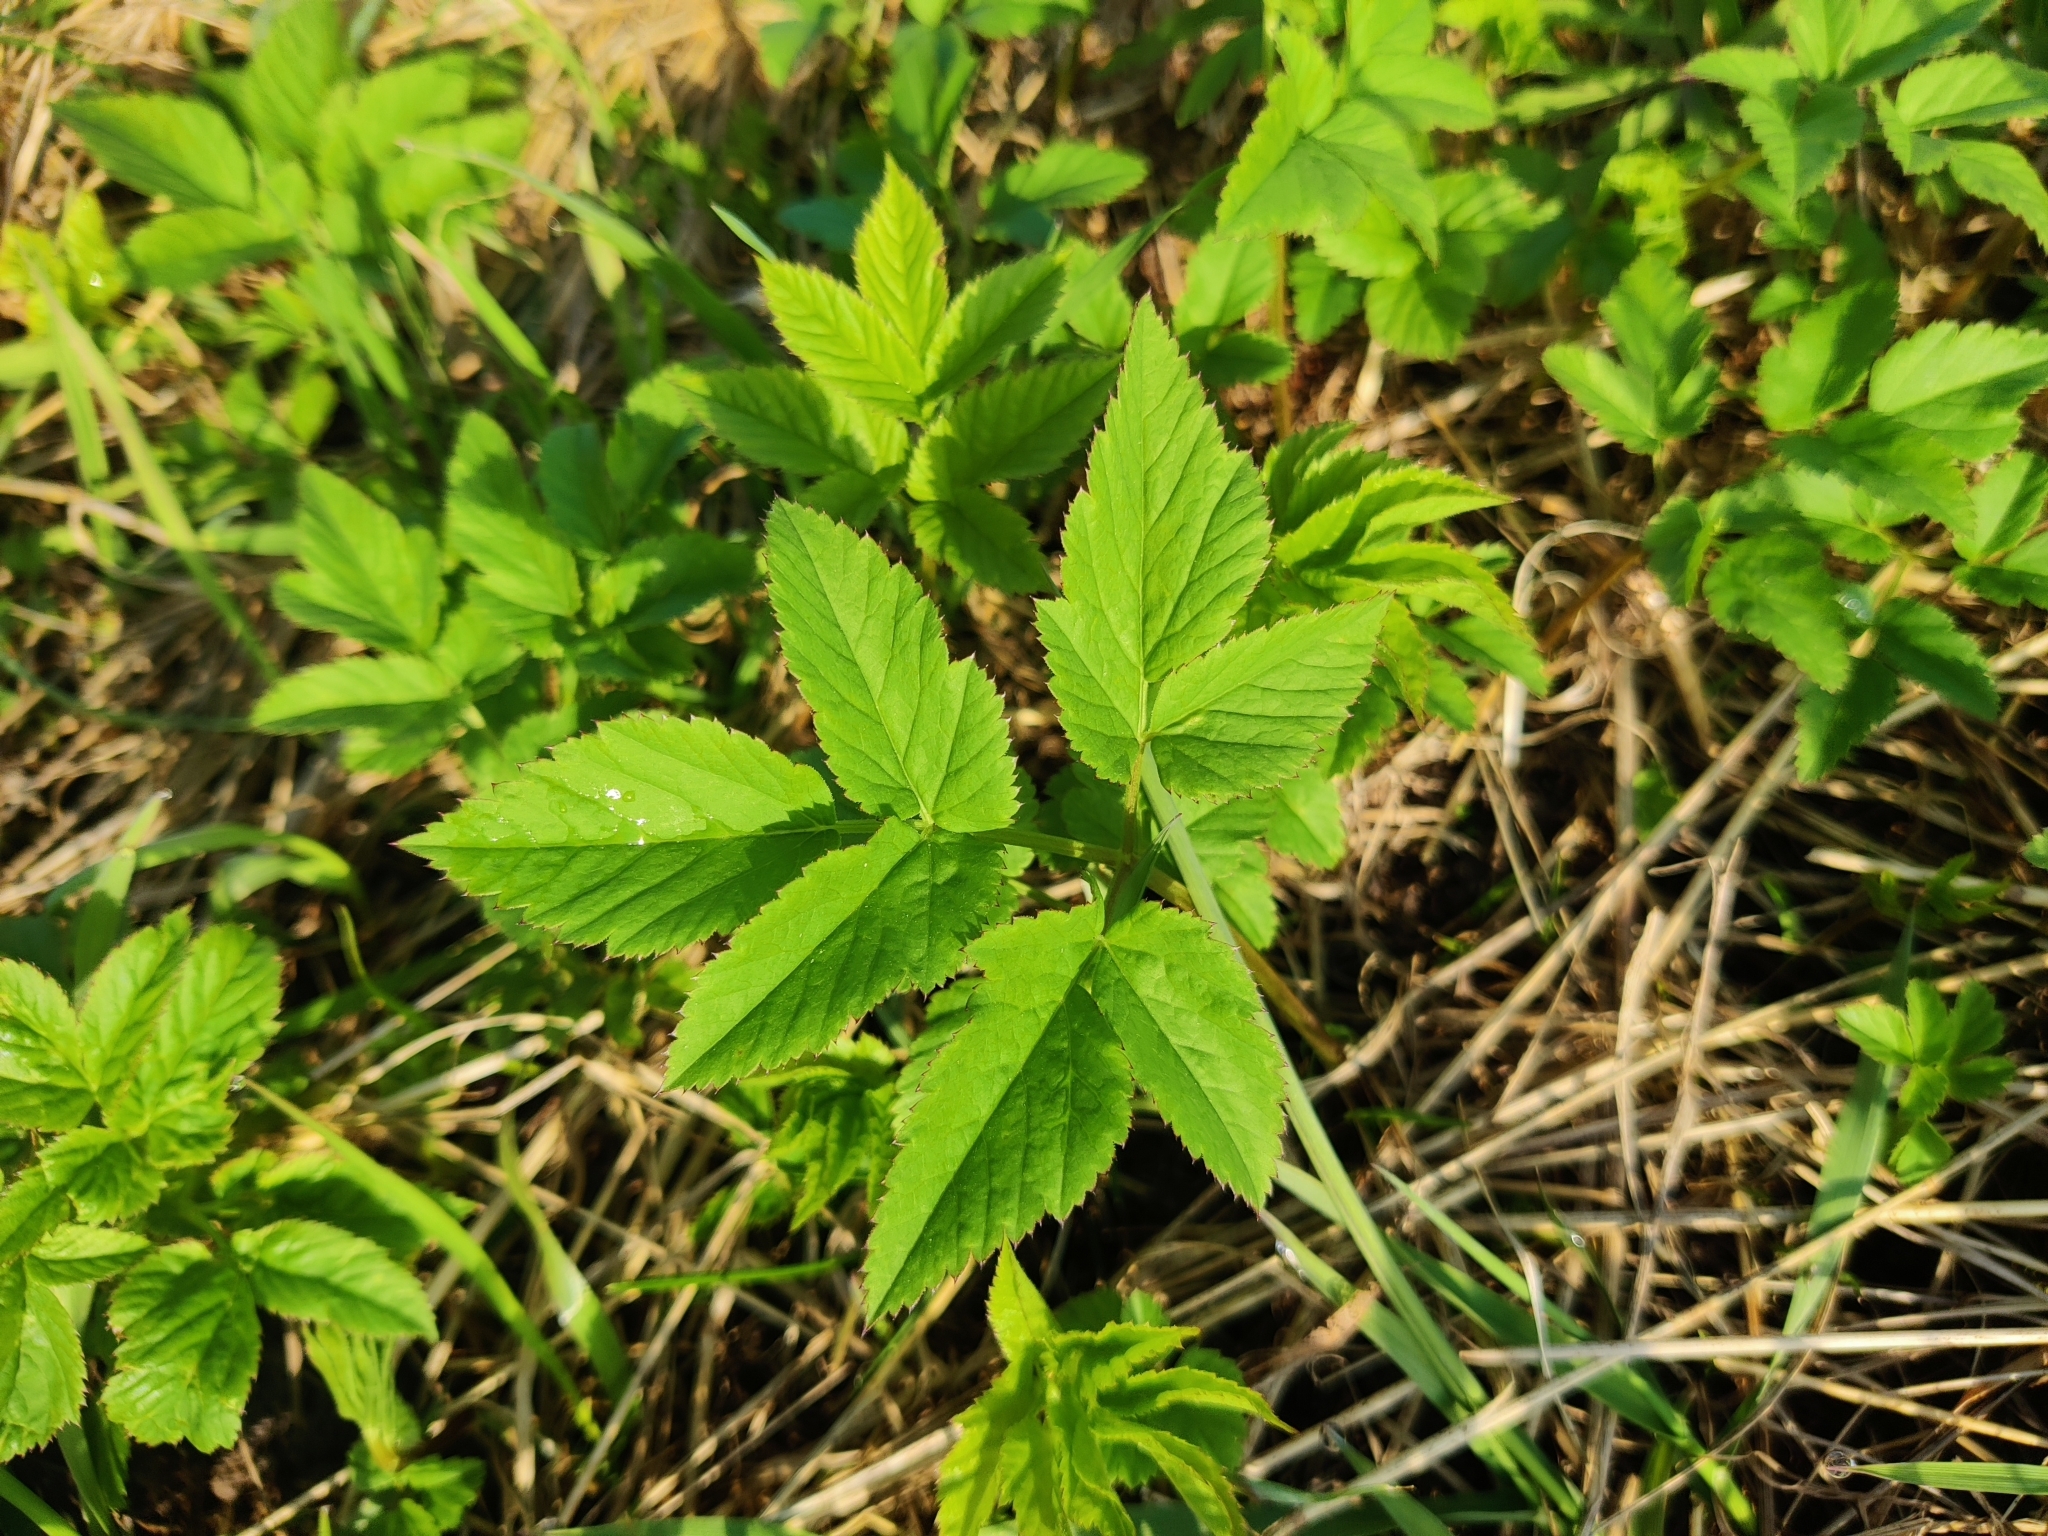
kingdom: Plantae
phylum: Tracheophyta
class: Magnoliopsida
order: Apiales
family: Apiaceae
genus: Aegopodium
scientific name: Aegopodium podagraria
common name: Ground-elder
